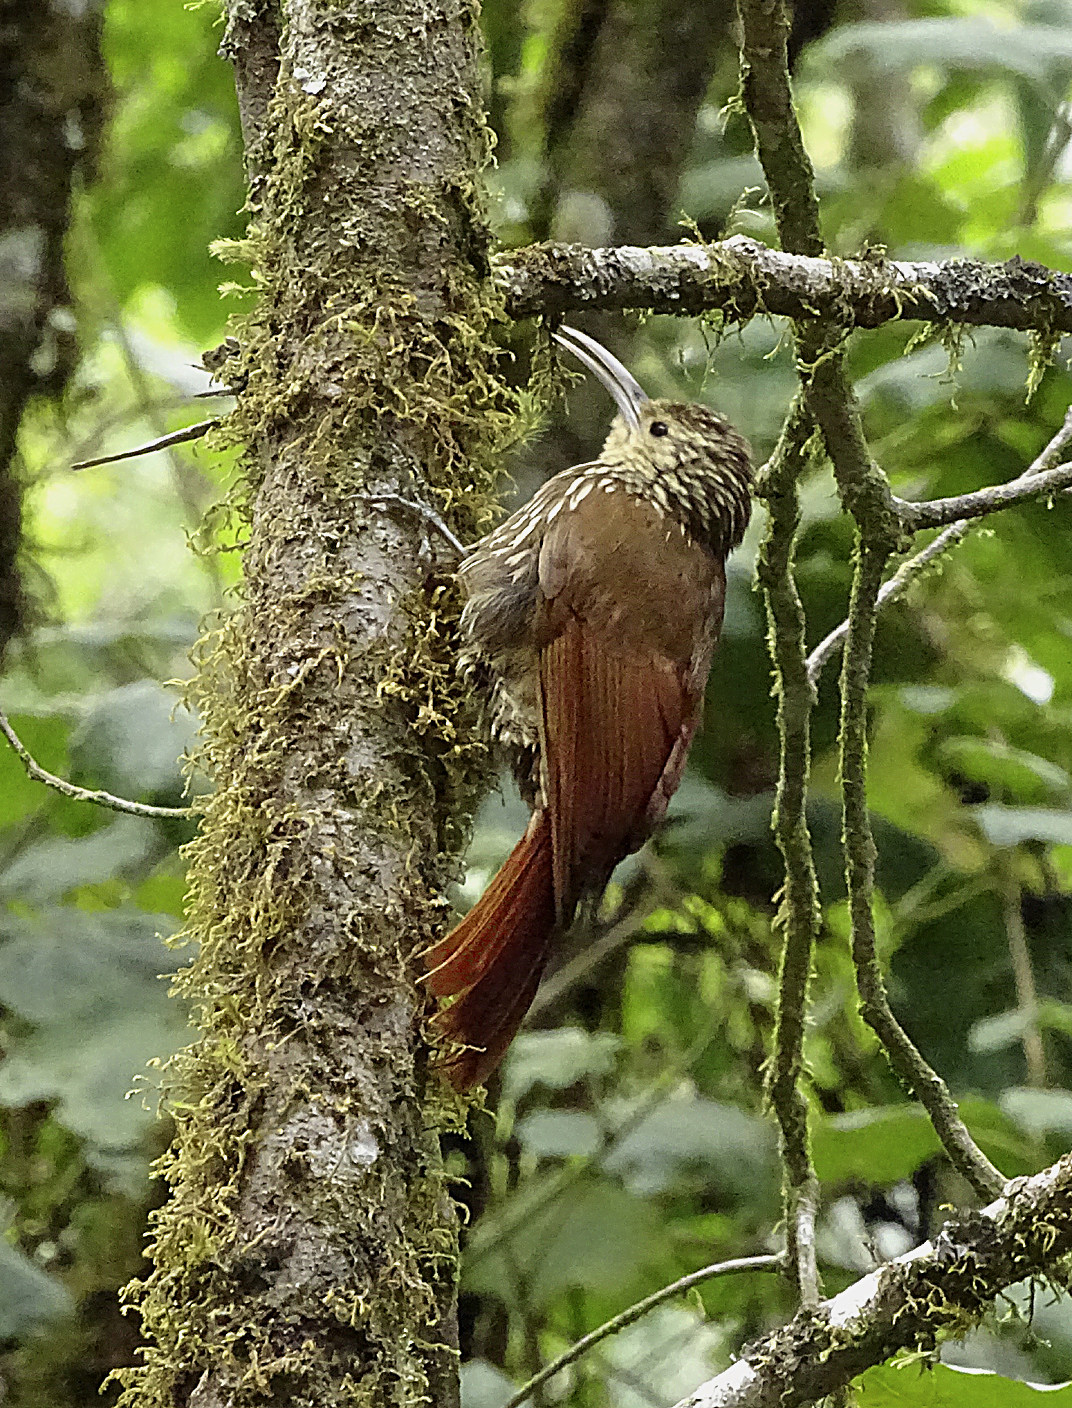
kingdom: Animalia
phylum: Chordata
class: Aves
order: Passeriformes
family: Furnariidae
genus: Lepidocolaptes
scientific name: Lepidocolaptes affinis
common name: Spot-crowned woodcreeper
